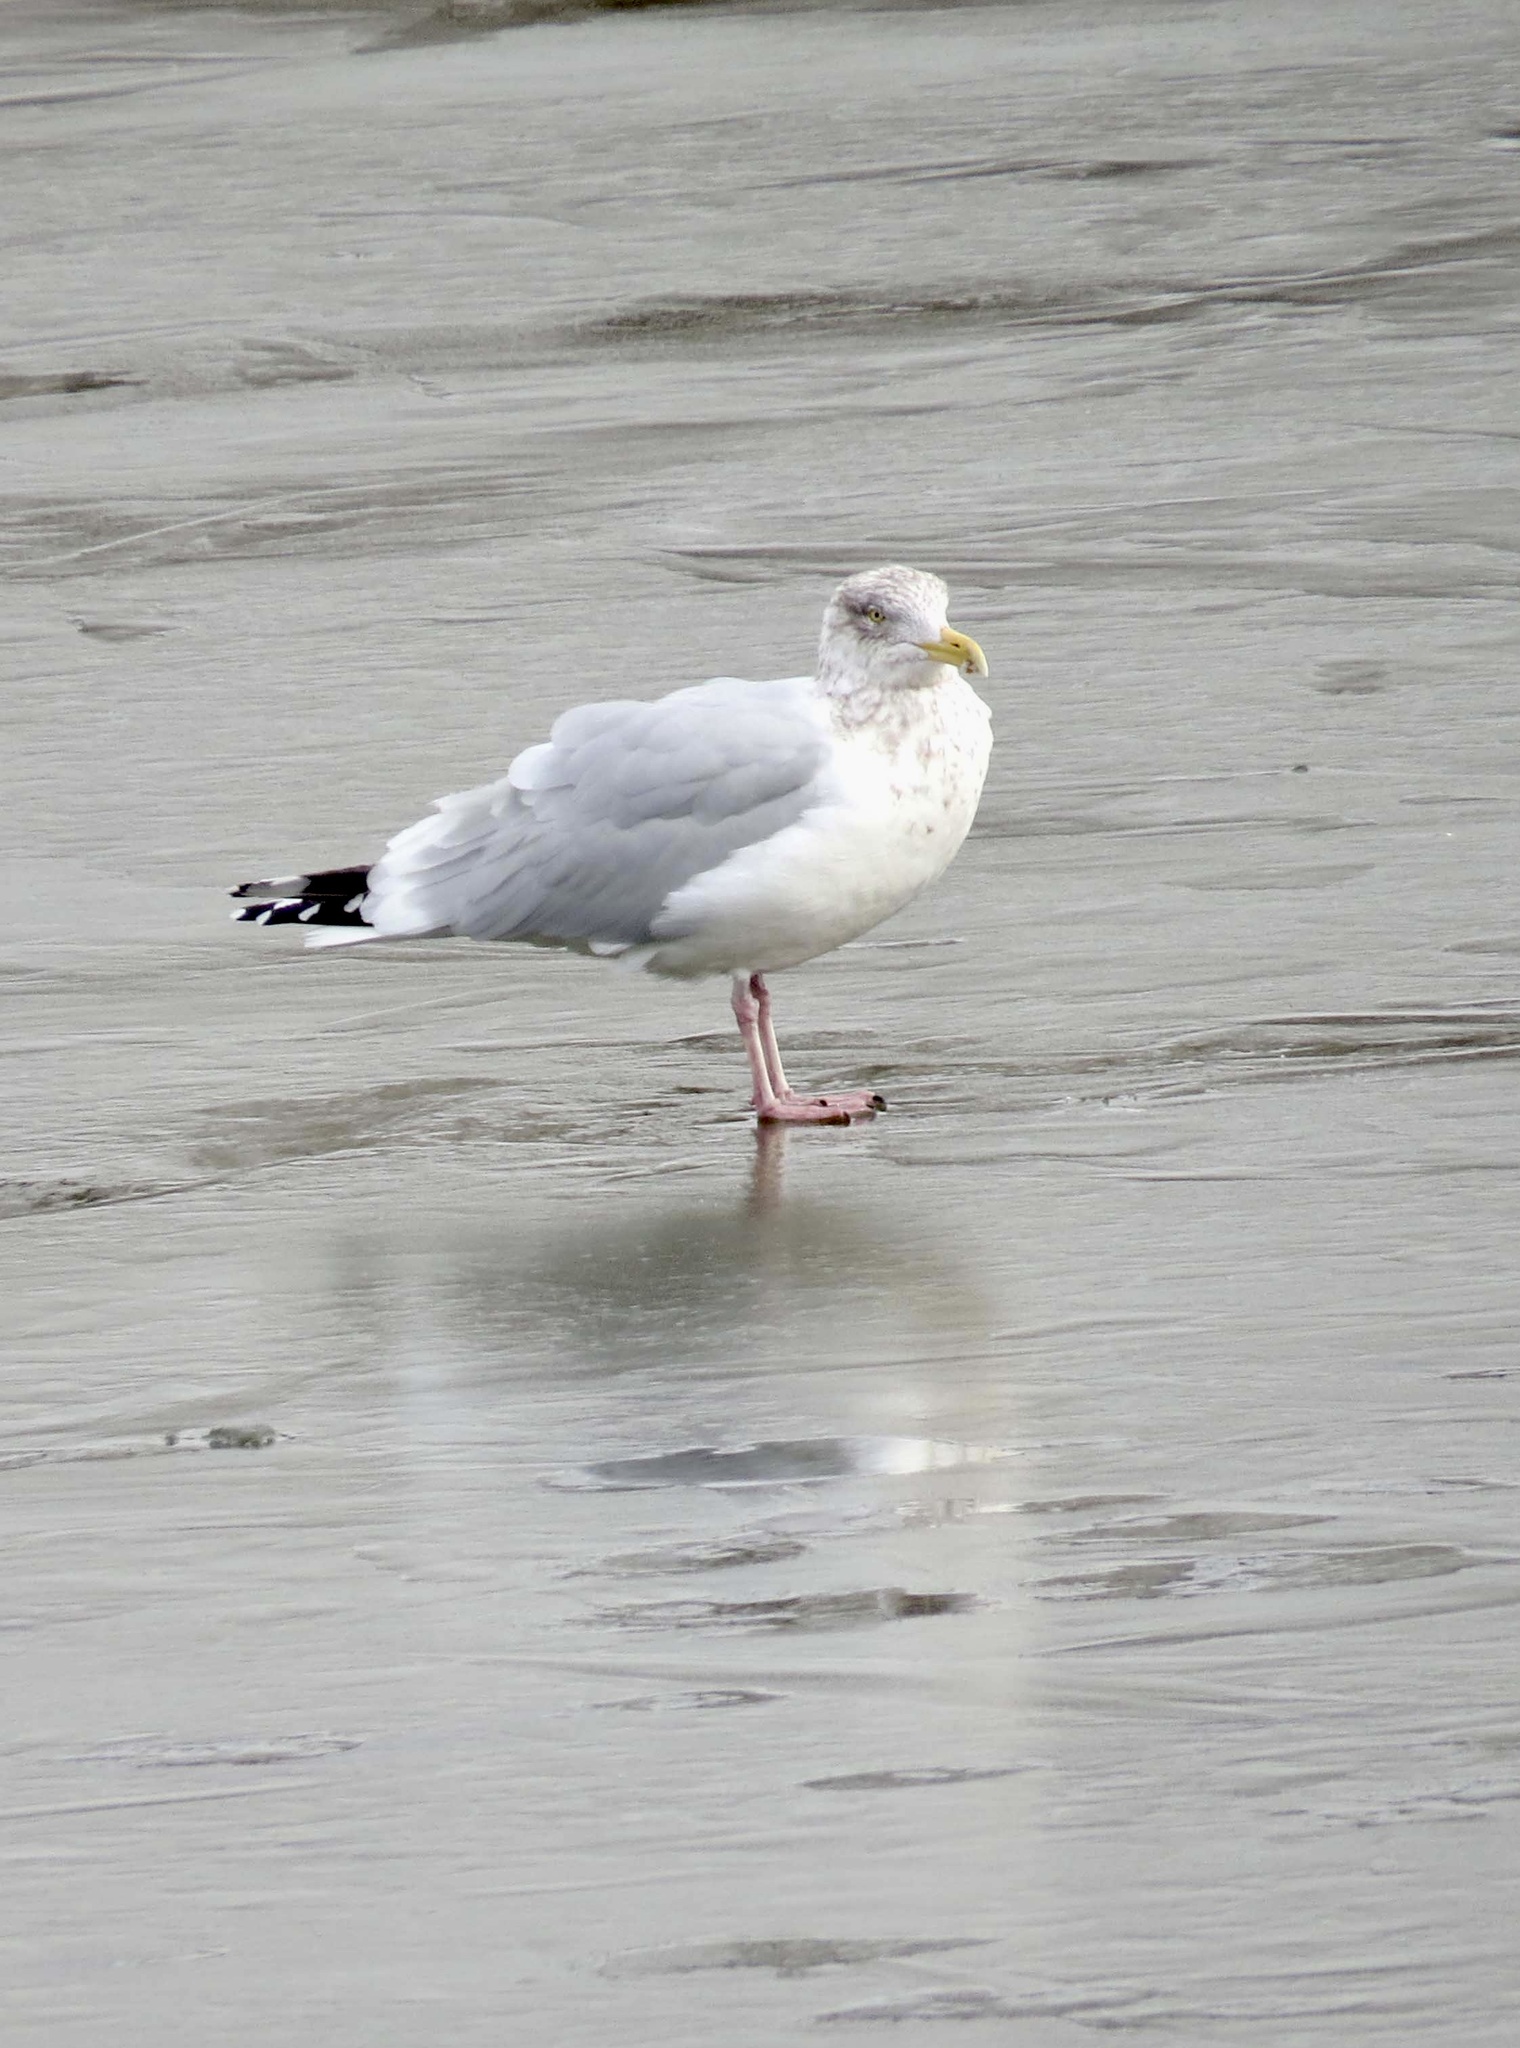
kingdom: Animalia
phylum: Chordata
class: Aves
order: Charadriiformes
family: Laridae
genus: Larus
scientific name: Larus argentatus
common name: Herring gull
